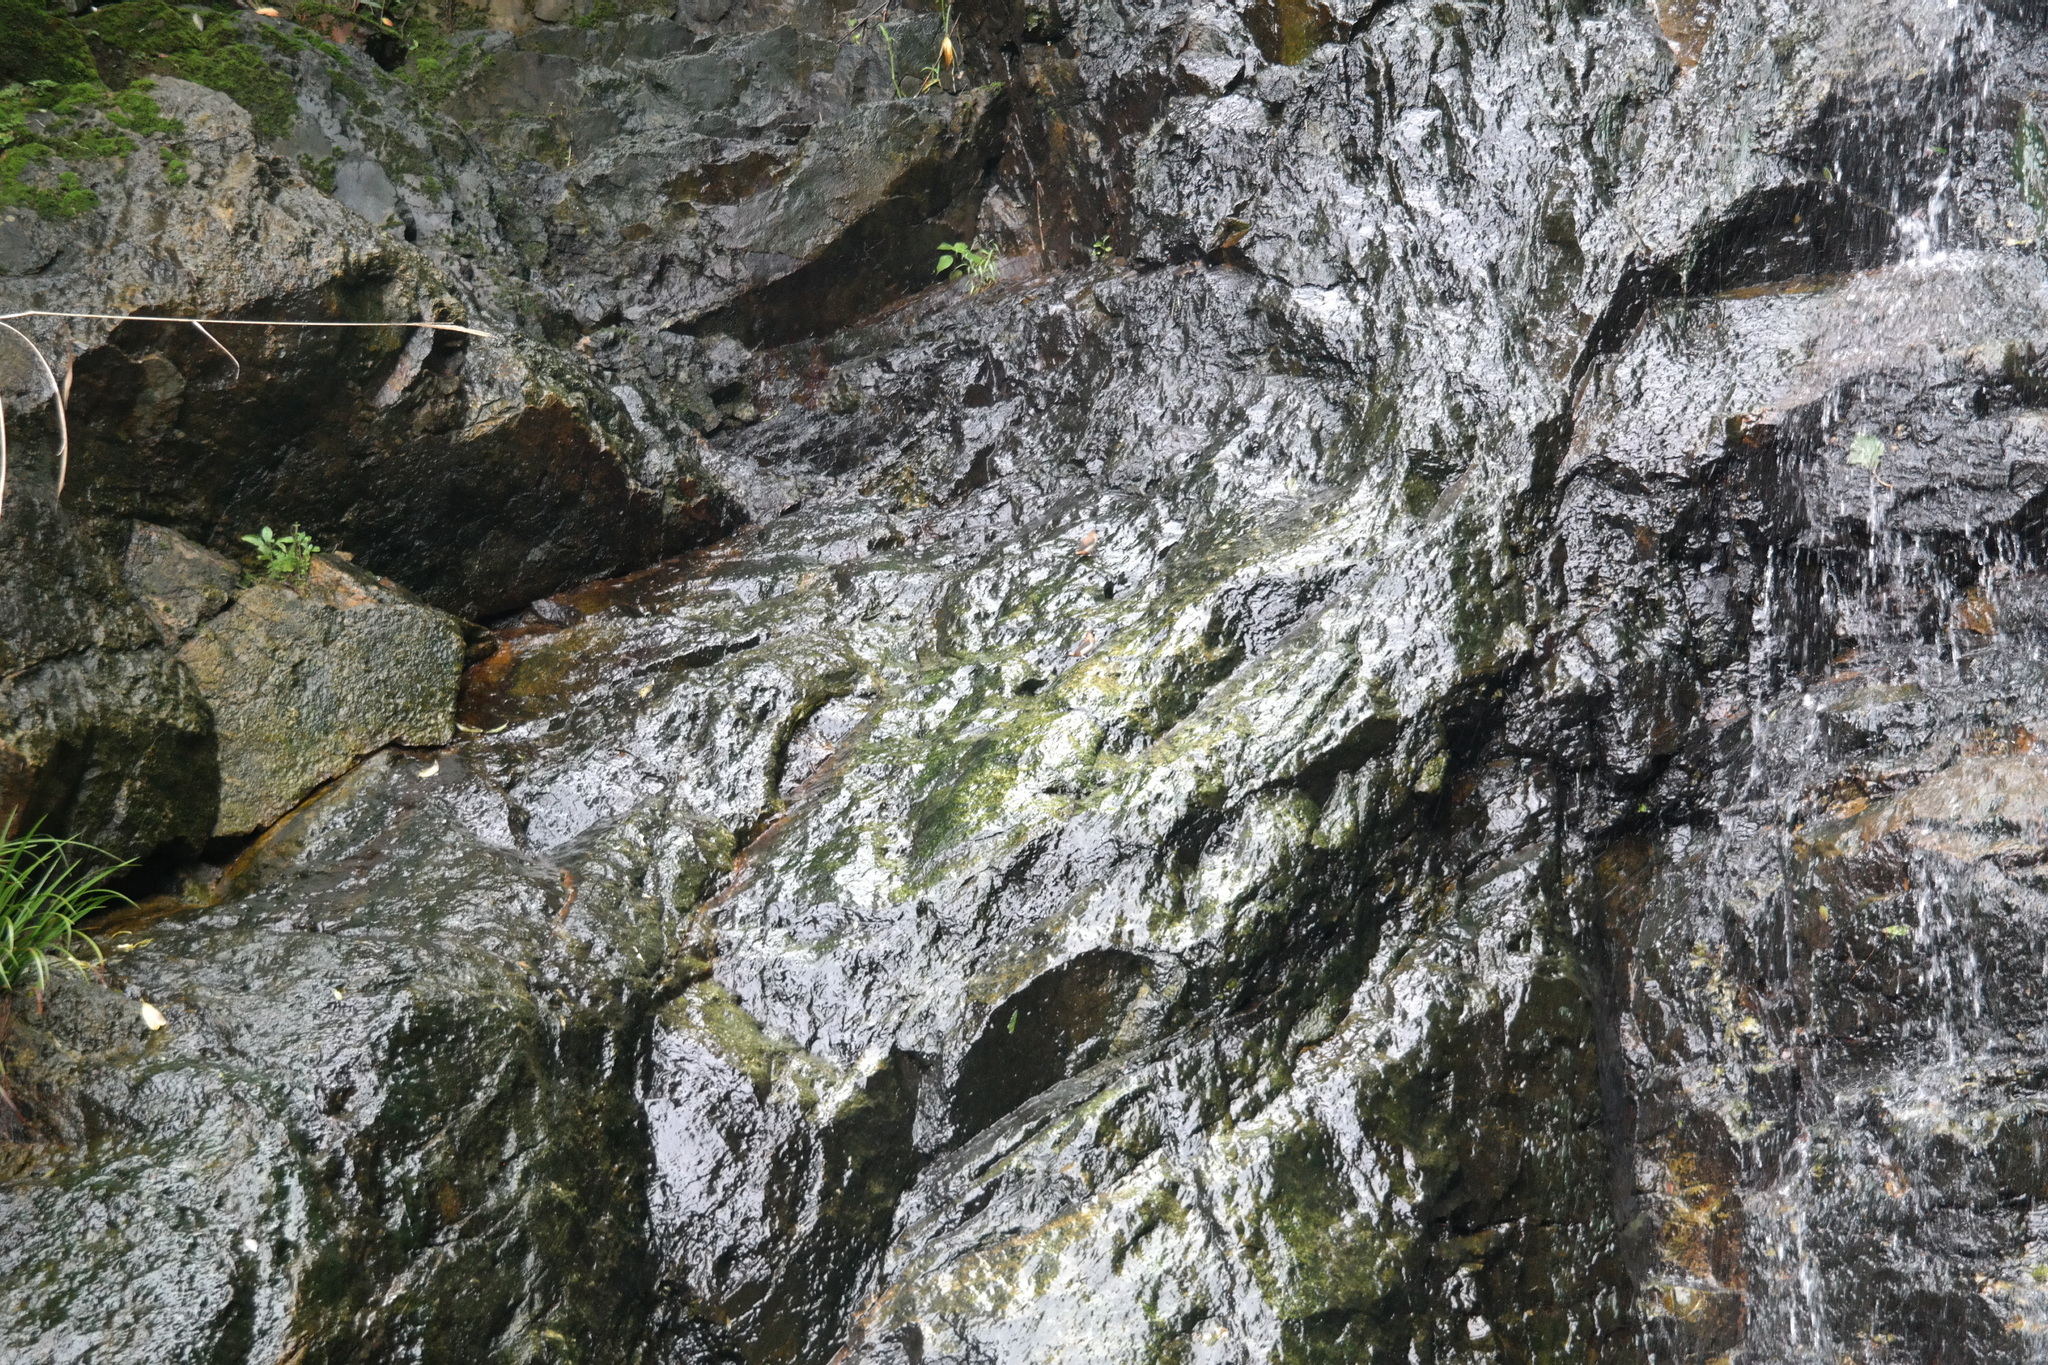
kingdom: Animalia
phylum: Chordata
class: Aves
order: Passeriformes
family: Estrildidae
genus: Lonchura
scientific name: Lonchura striata
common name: White-rumped munia
